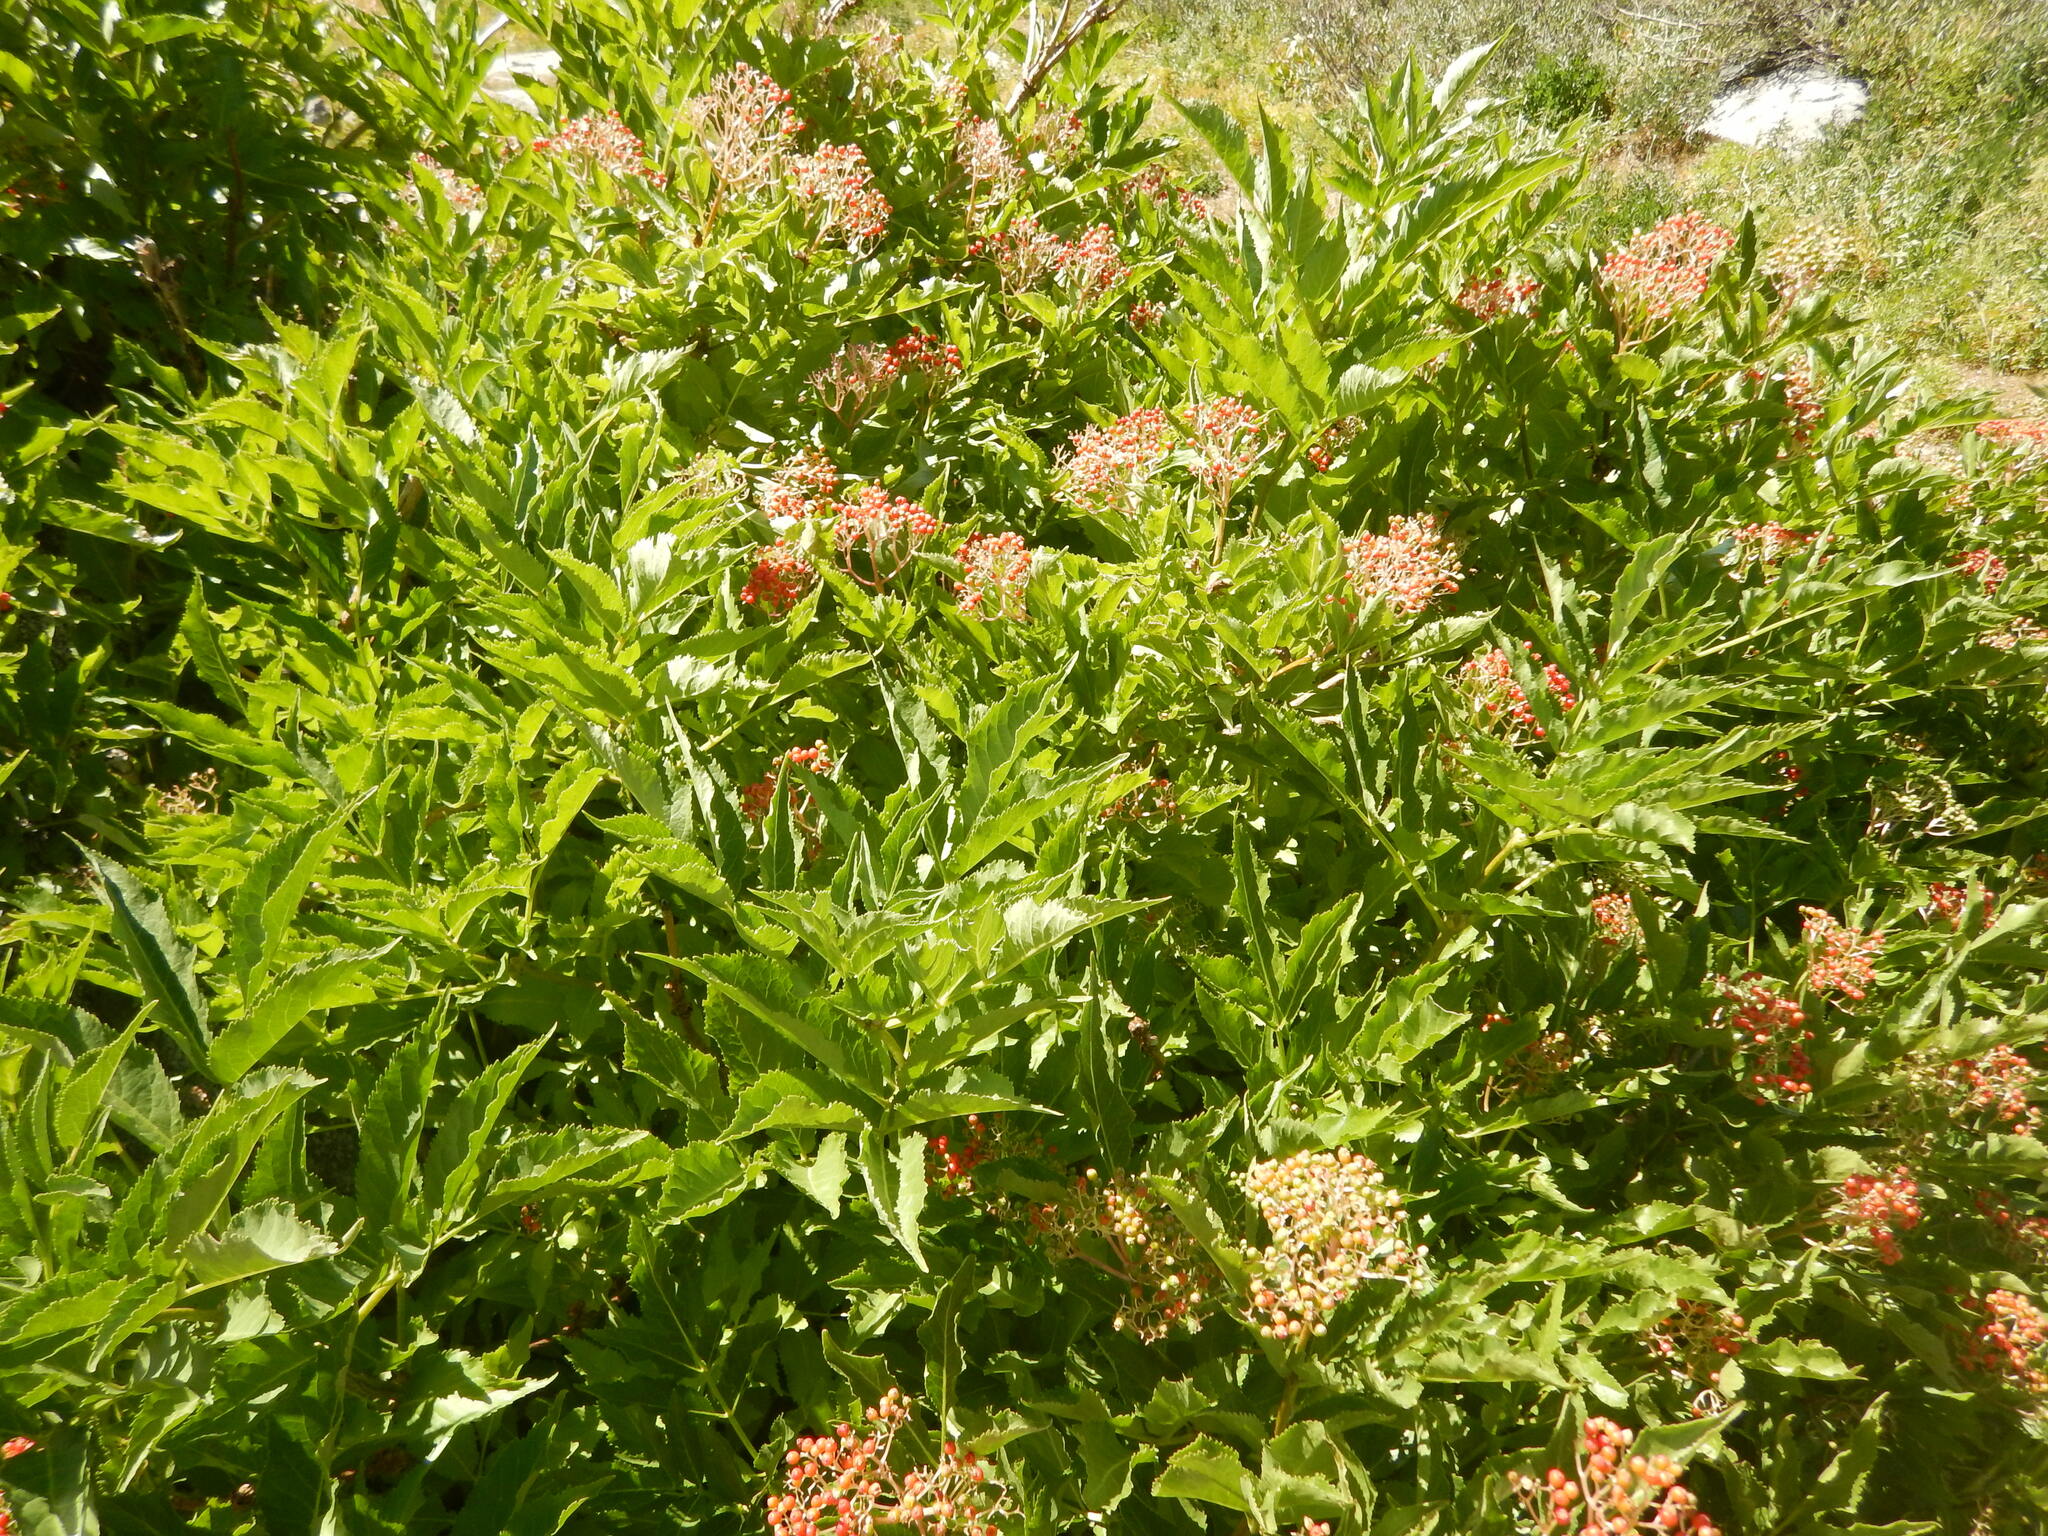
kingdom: Plantae
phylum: Tracheophyta
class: Magnoliopsida
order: Dipsacales
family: Viburnaceae
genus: Sambucus
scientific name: Sambucus racemosa
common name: Red-berried elder
